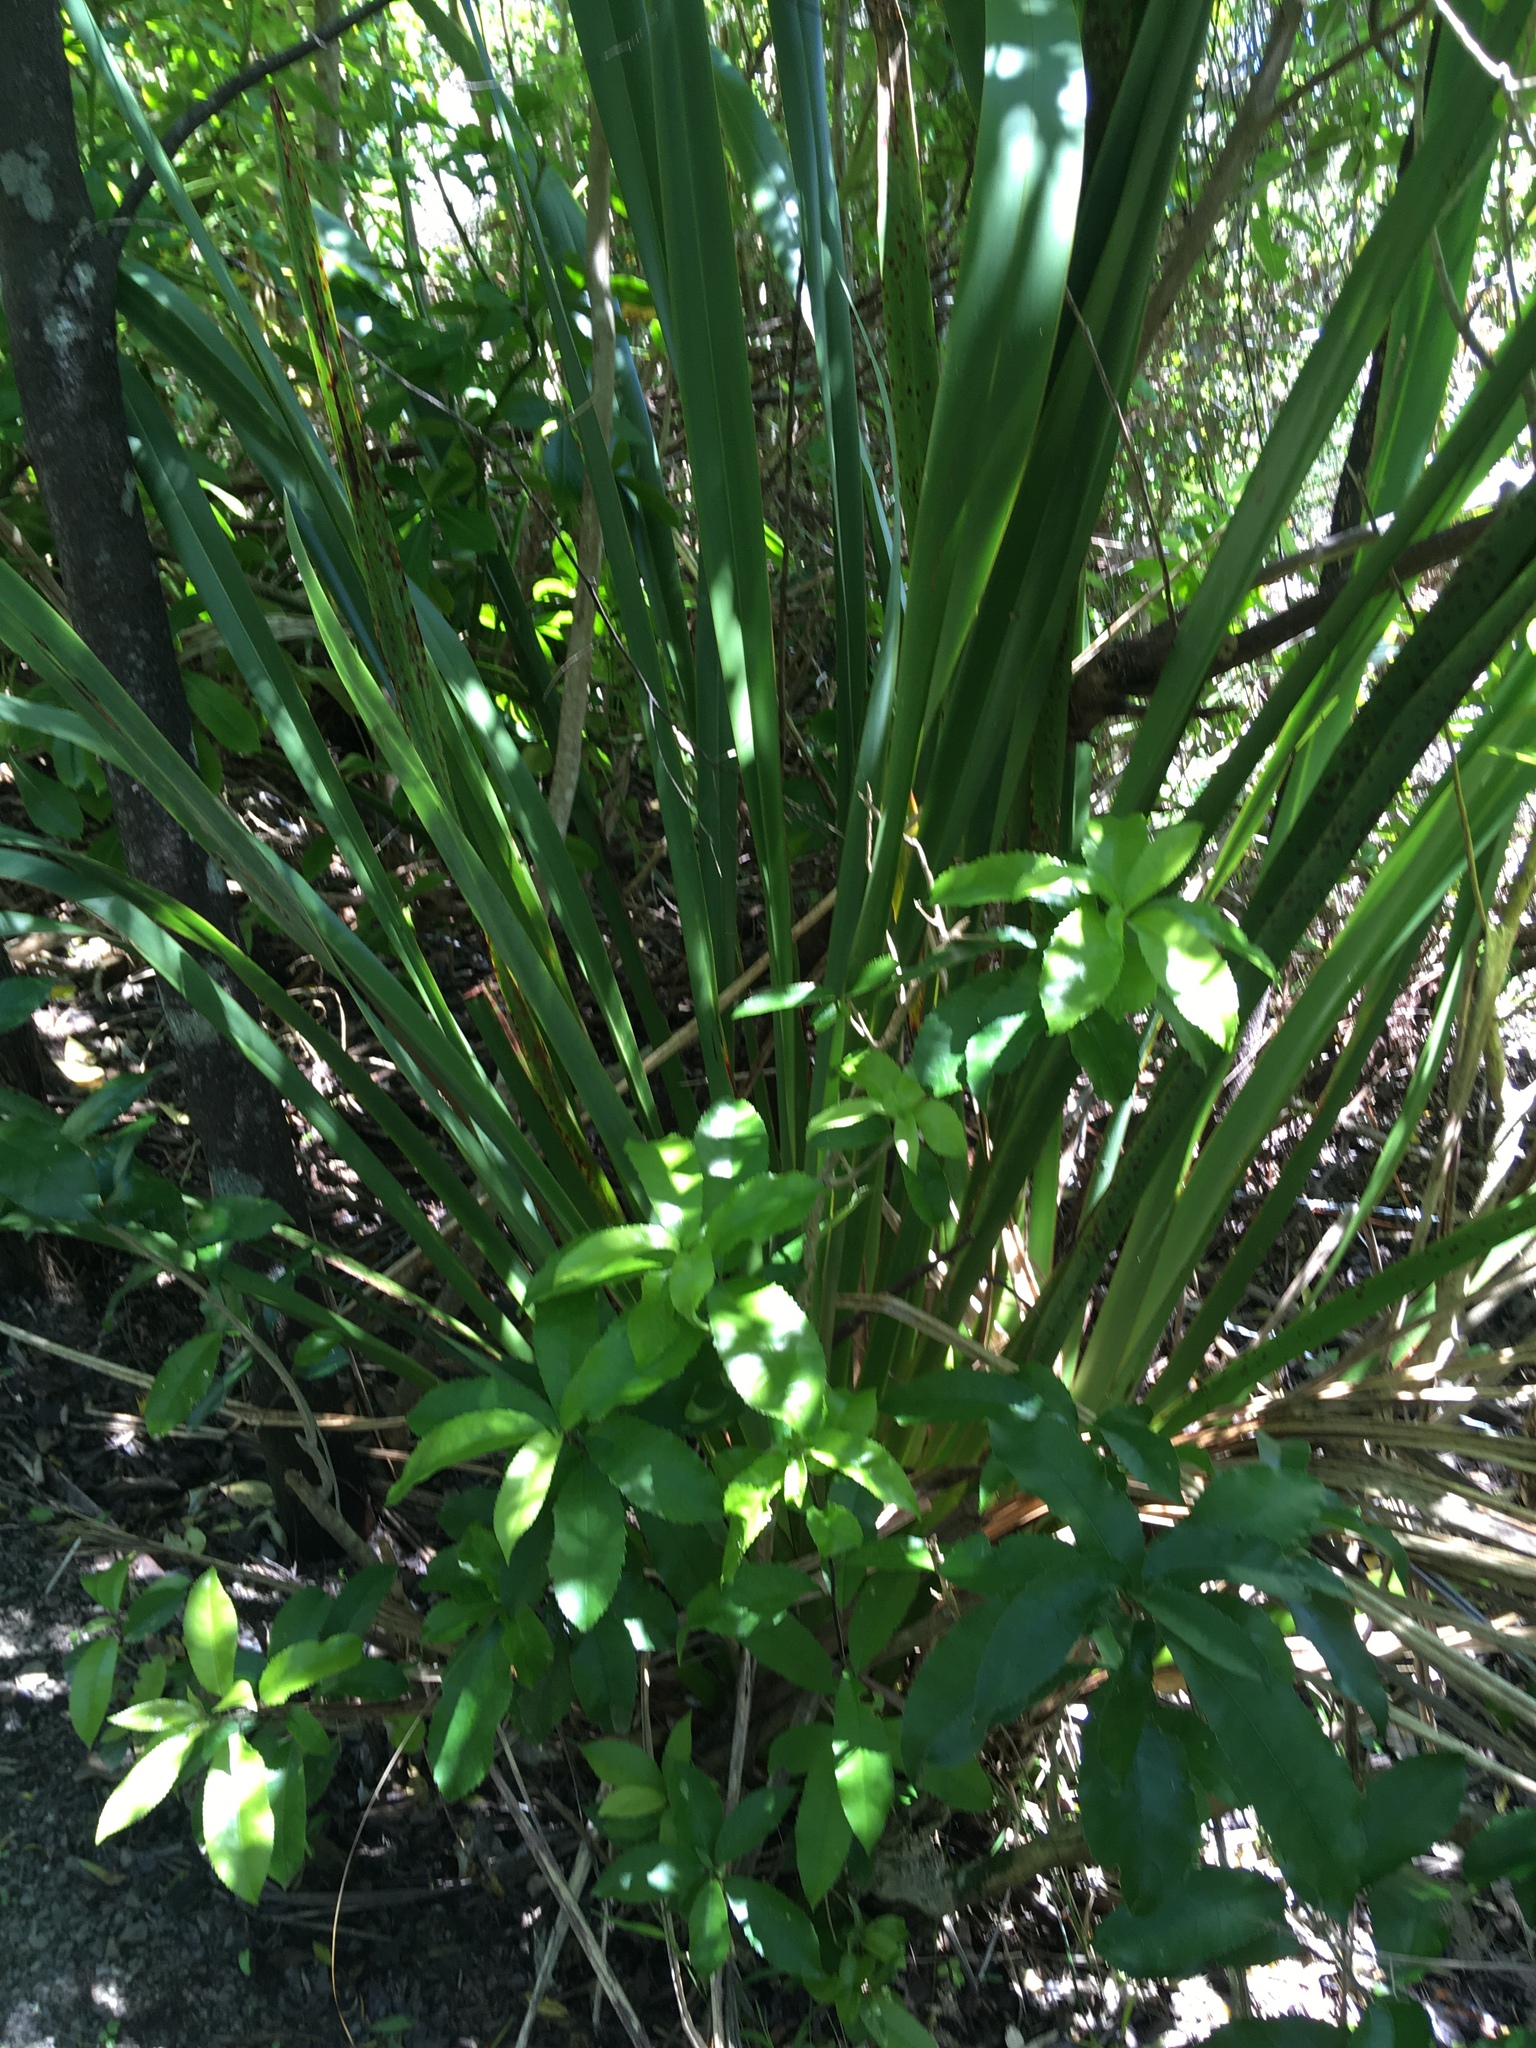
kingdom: Plantae
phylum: Tracheophyta
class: Liliopsida
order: Asparagales
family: Asphodelaceae
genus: Phormium
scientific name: Phormium colensoi
